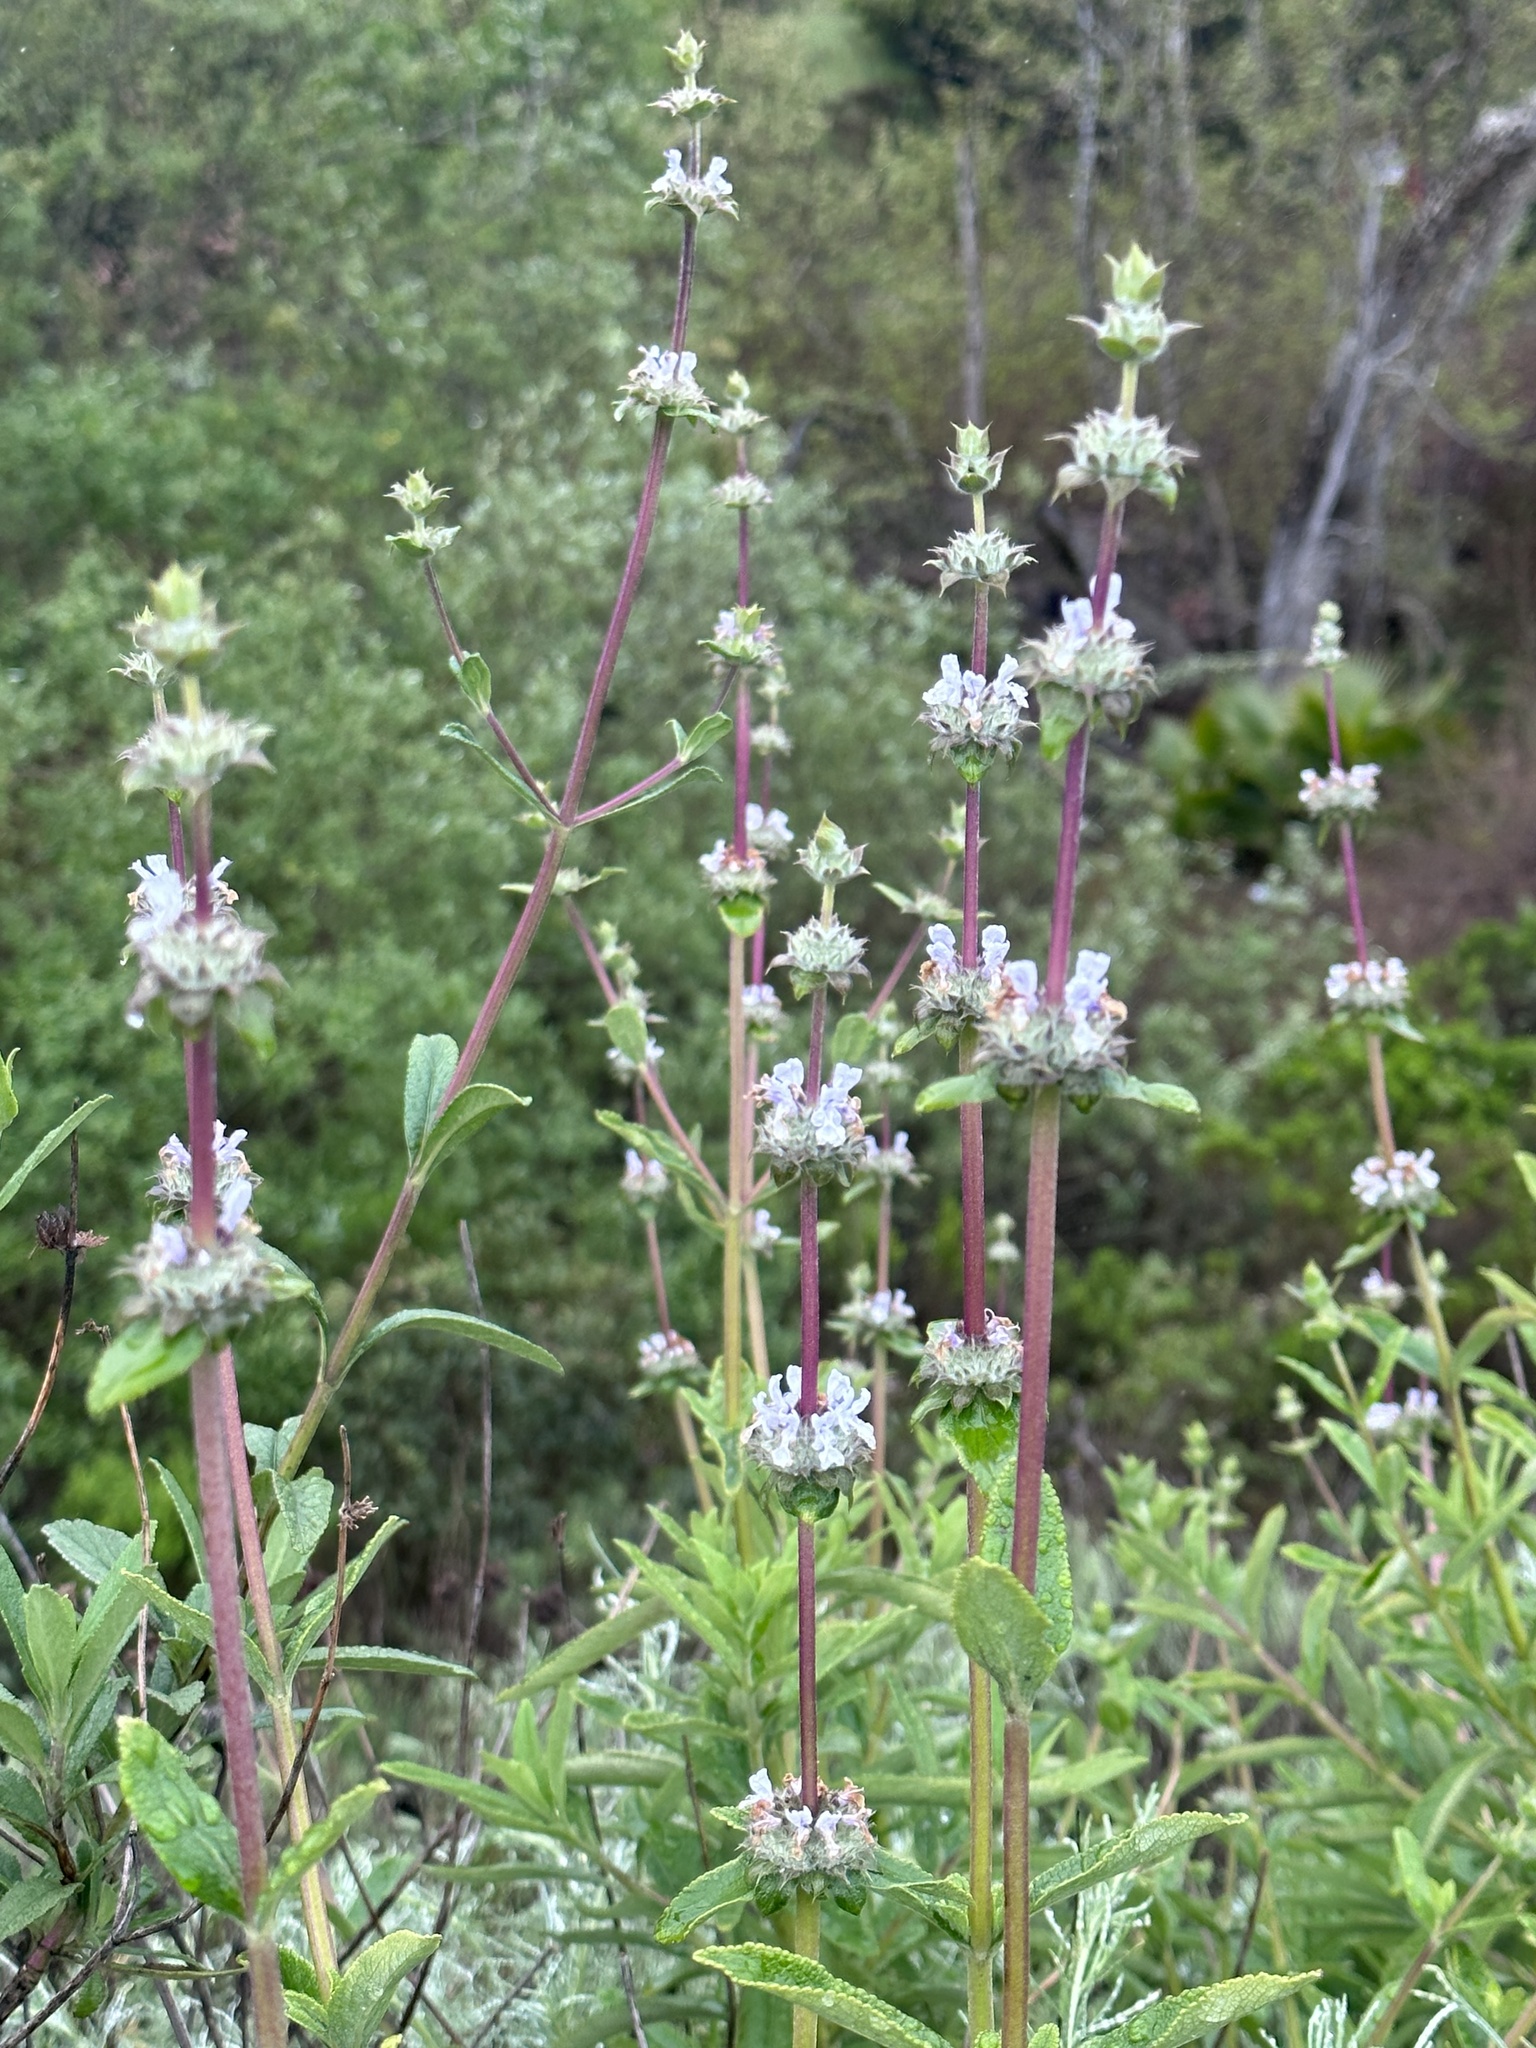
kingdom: Plantae
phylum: Tracheophyta
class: Magnoliopsida
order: Lamiales
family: Lamiaceae
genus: Salvia
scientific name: Salvia mellifera
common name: Black sage
